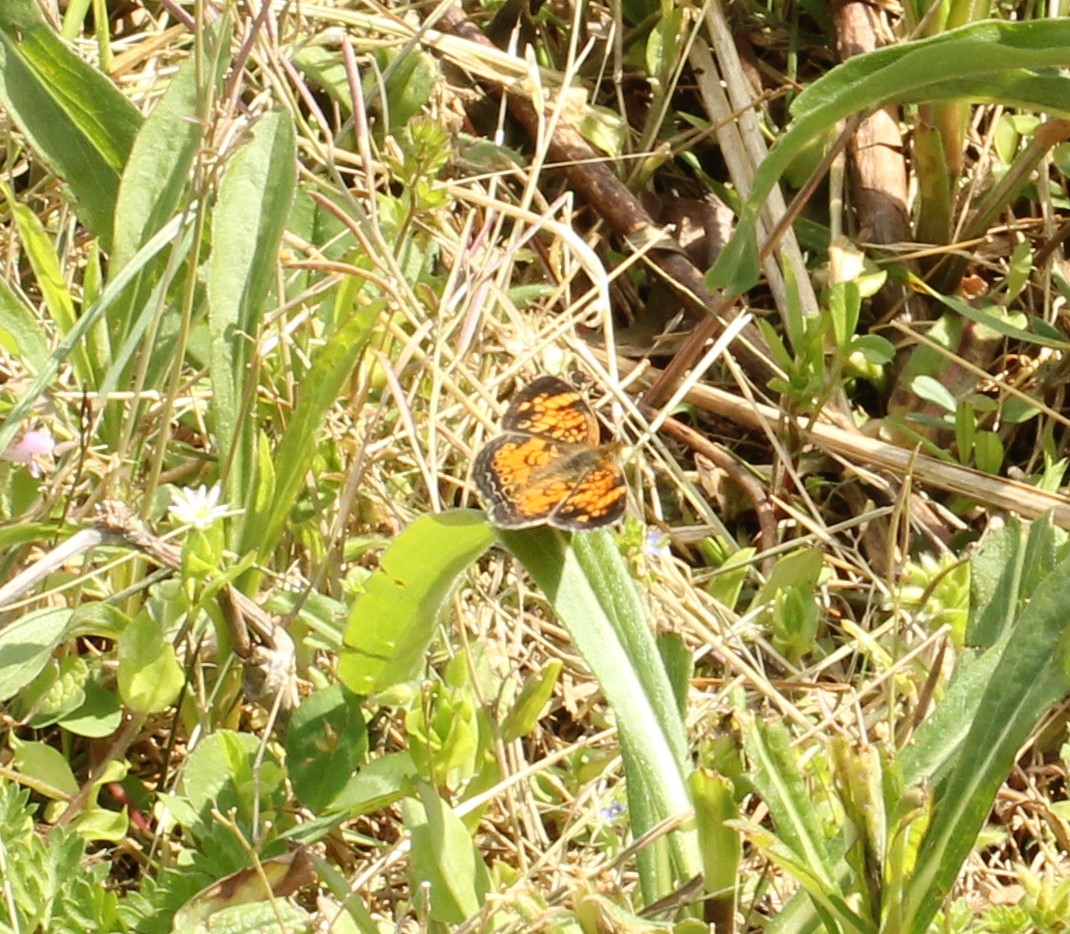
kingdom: Animalia
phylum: Arthropoda
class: Insecta
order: Lepidoptera
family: Nymphalidae
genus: Phyciodes
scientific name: Phyciodes tharos
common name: Pearl crescent
